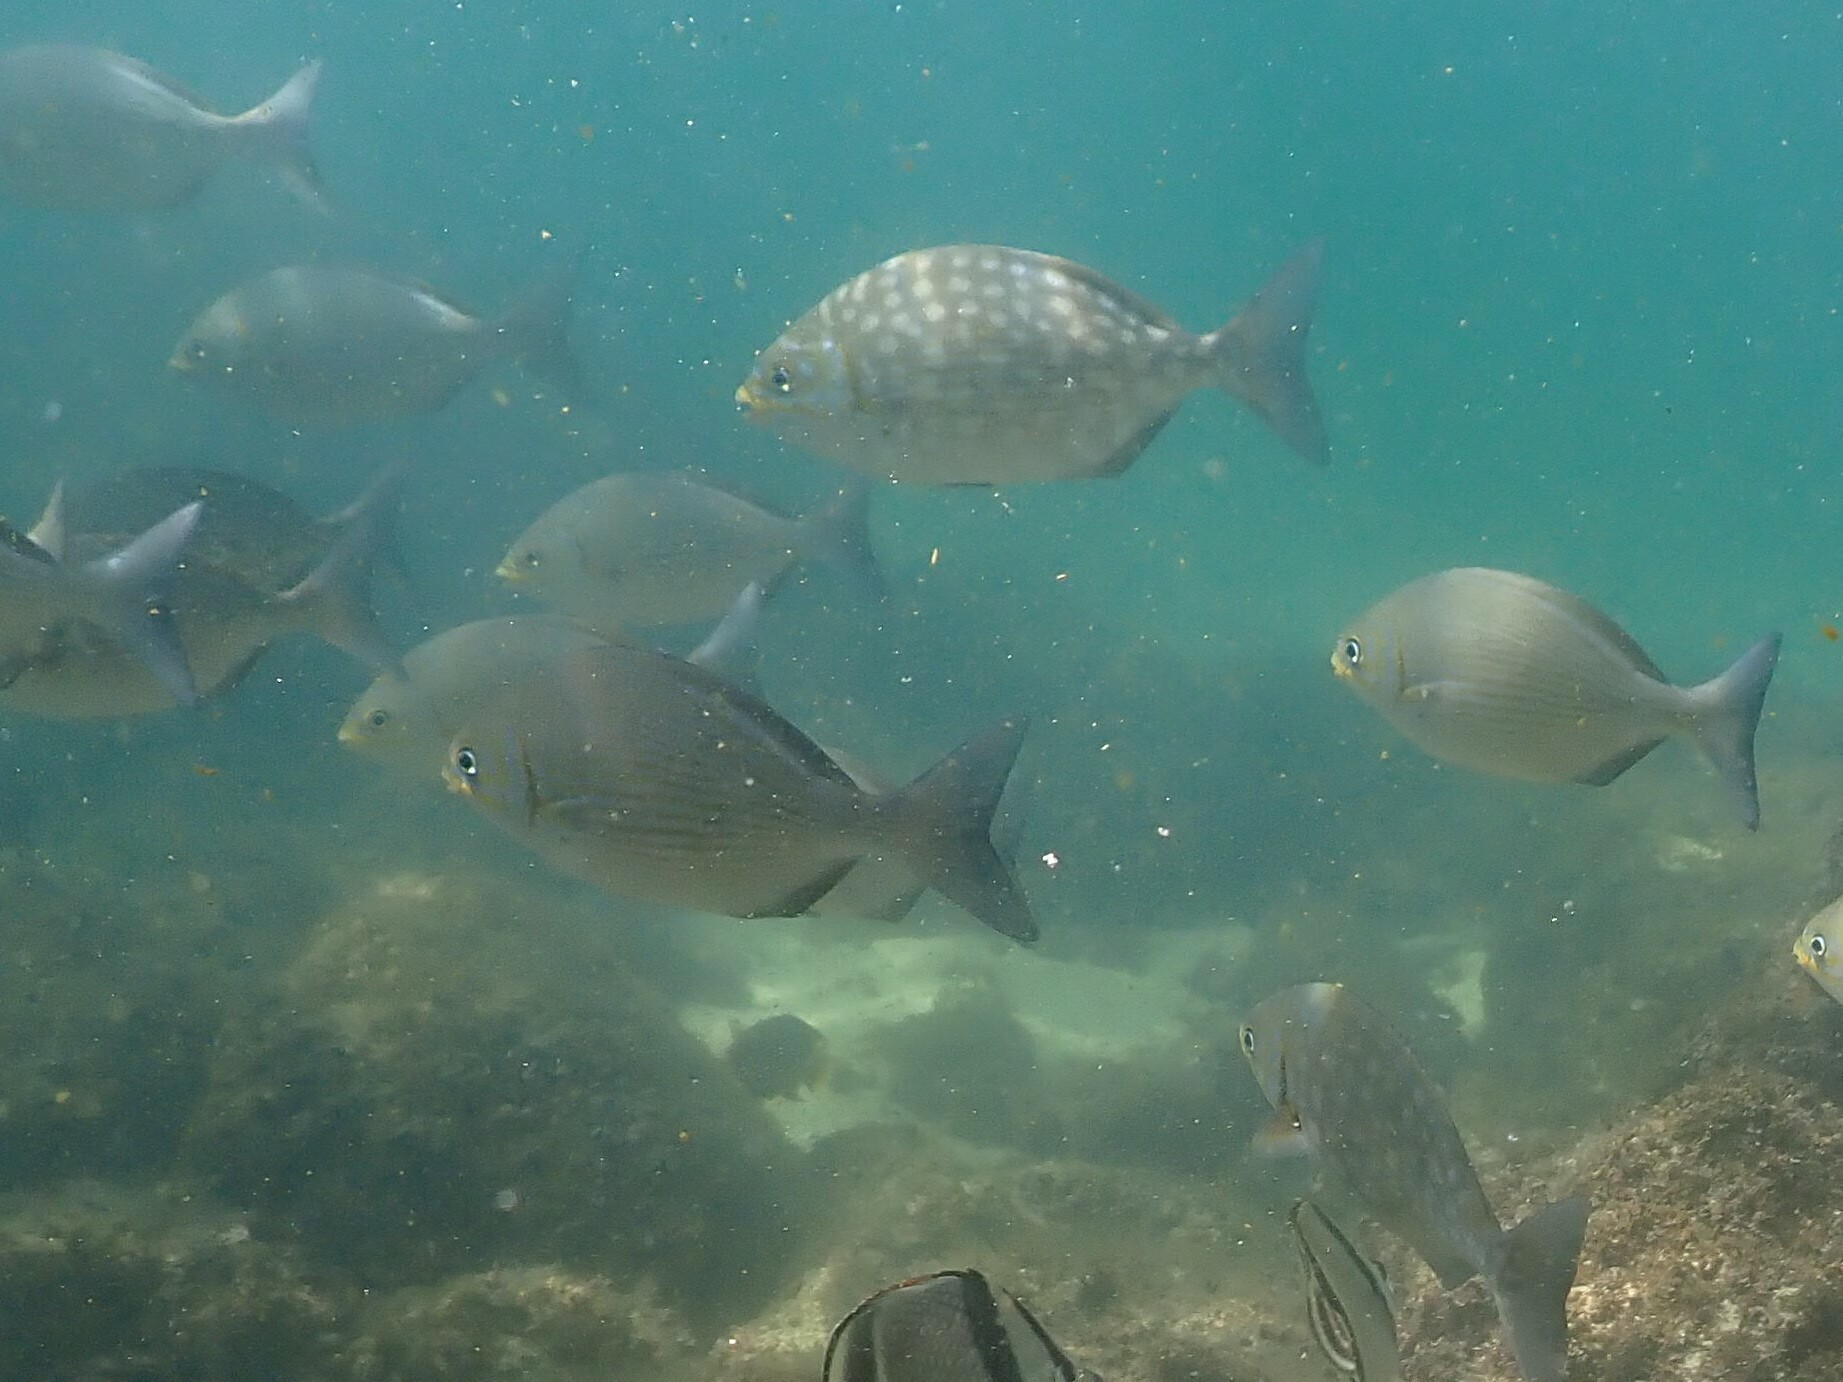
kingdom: Animalia
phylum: Chordata
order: Perciformes
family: Kyphosidae
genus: Kyphosus
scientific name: Kyphosus vaigiensis
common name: Brassy chub
